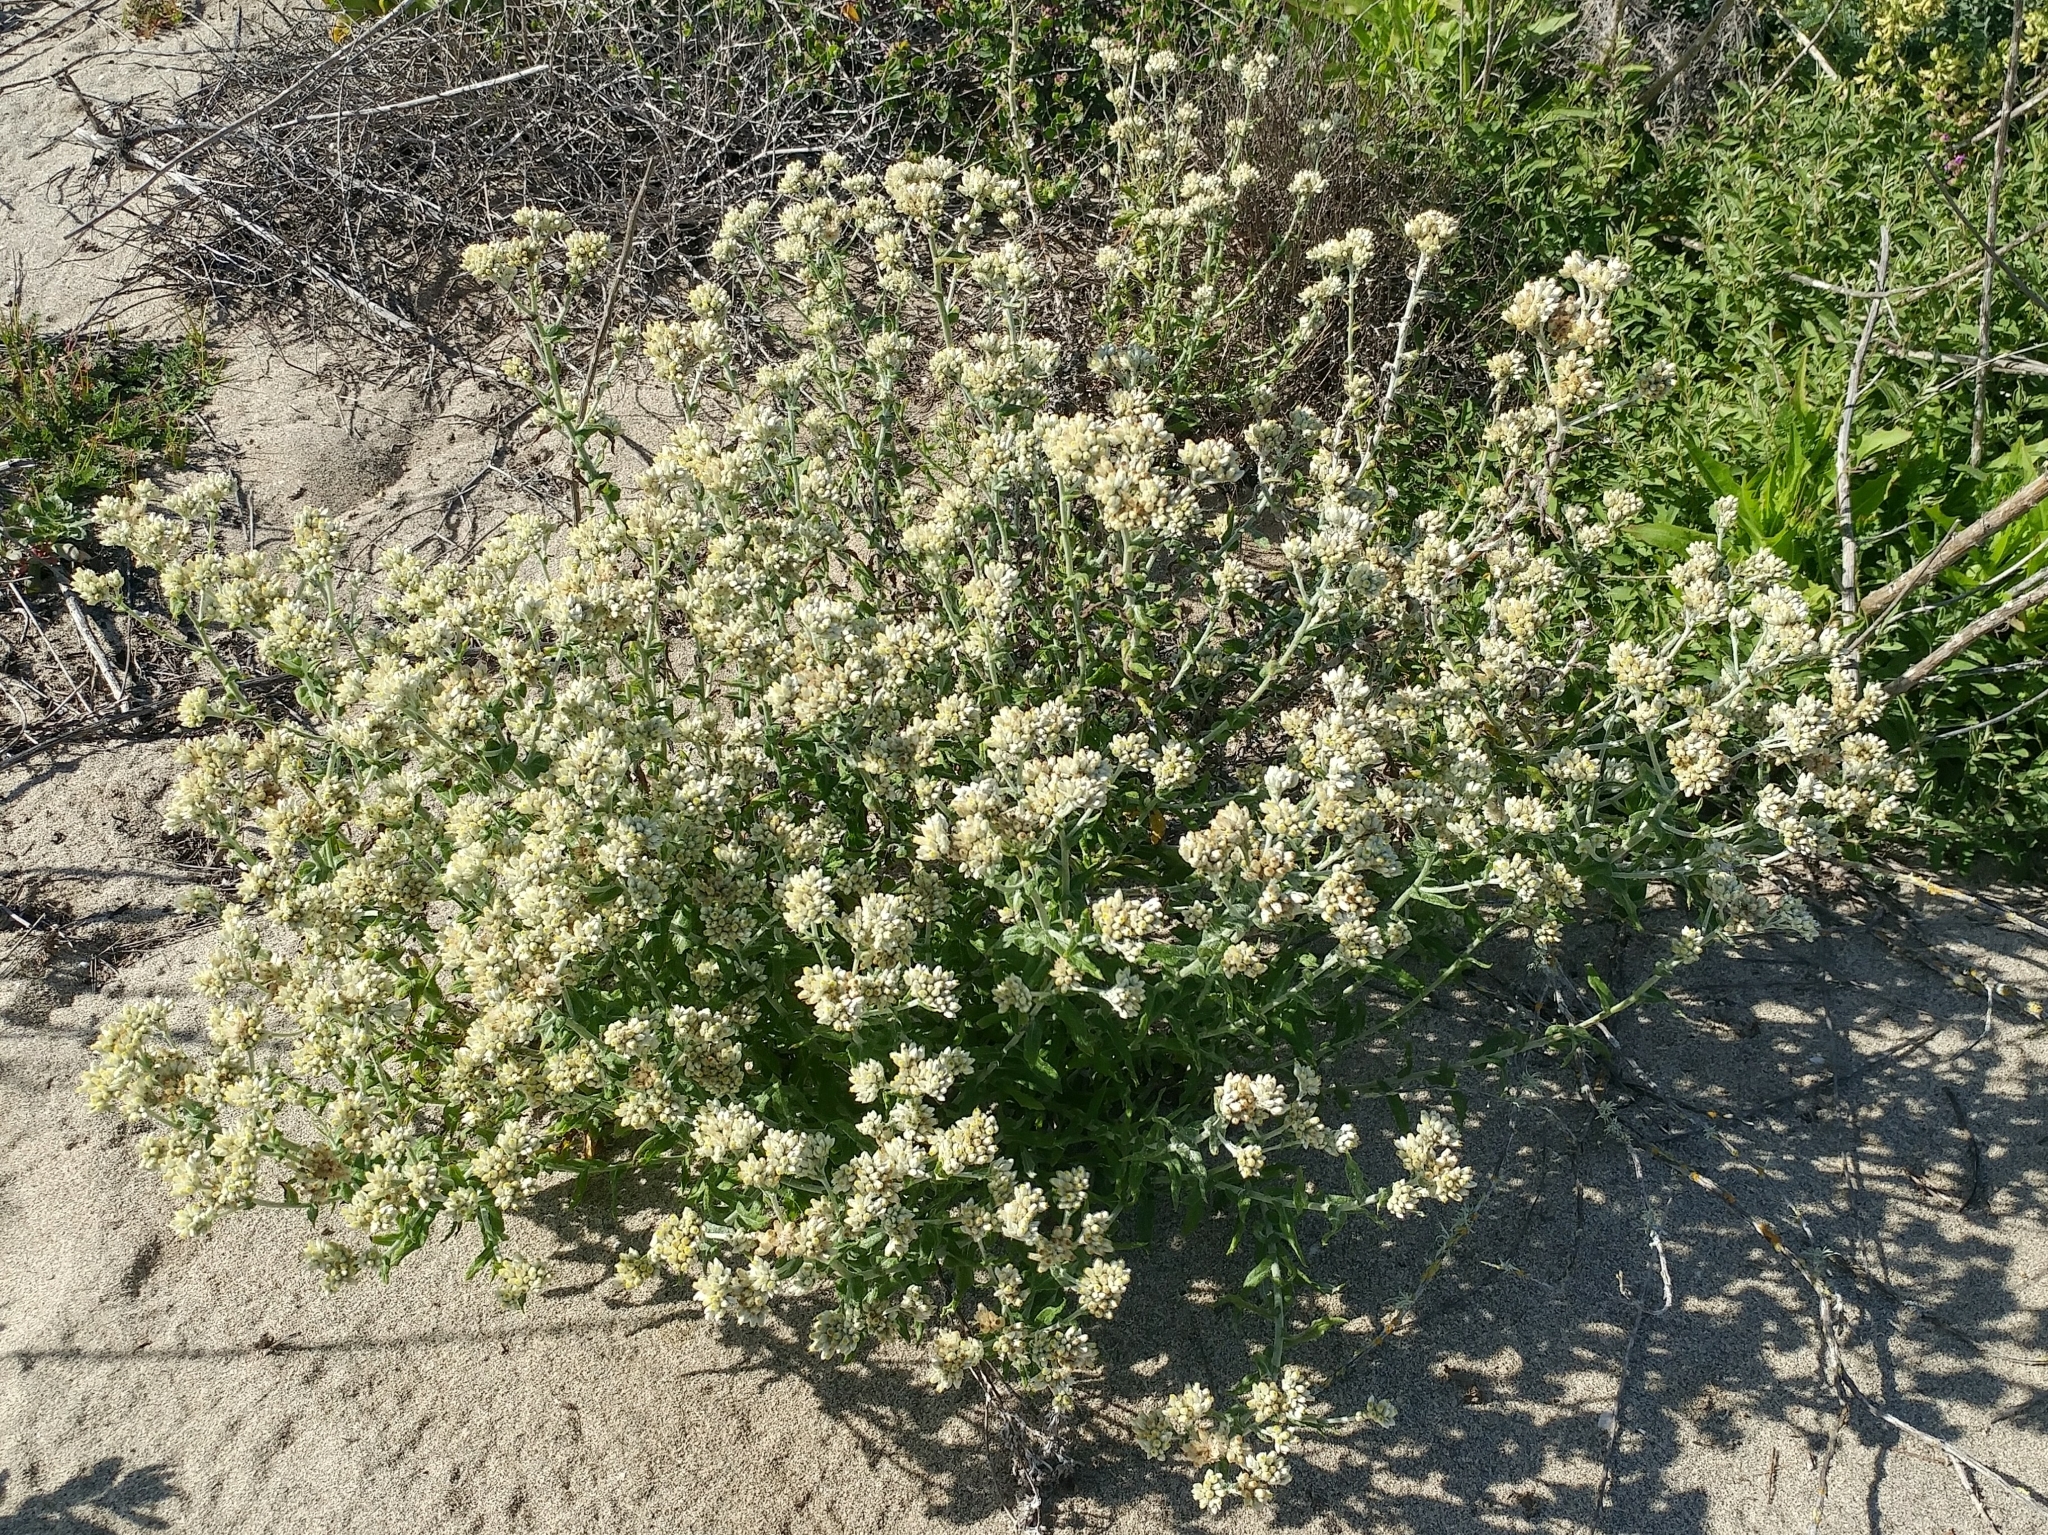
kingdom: Plantae
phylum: Tracheophyta
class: Magnoliopsida
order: Asterales
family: Asteraceae
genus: Pseudognaphalium
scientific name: Pseudognaphalium biolettii
